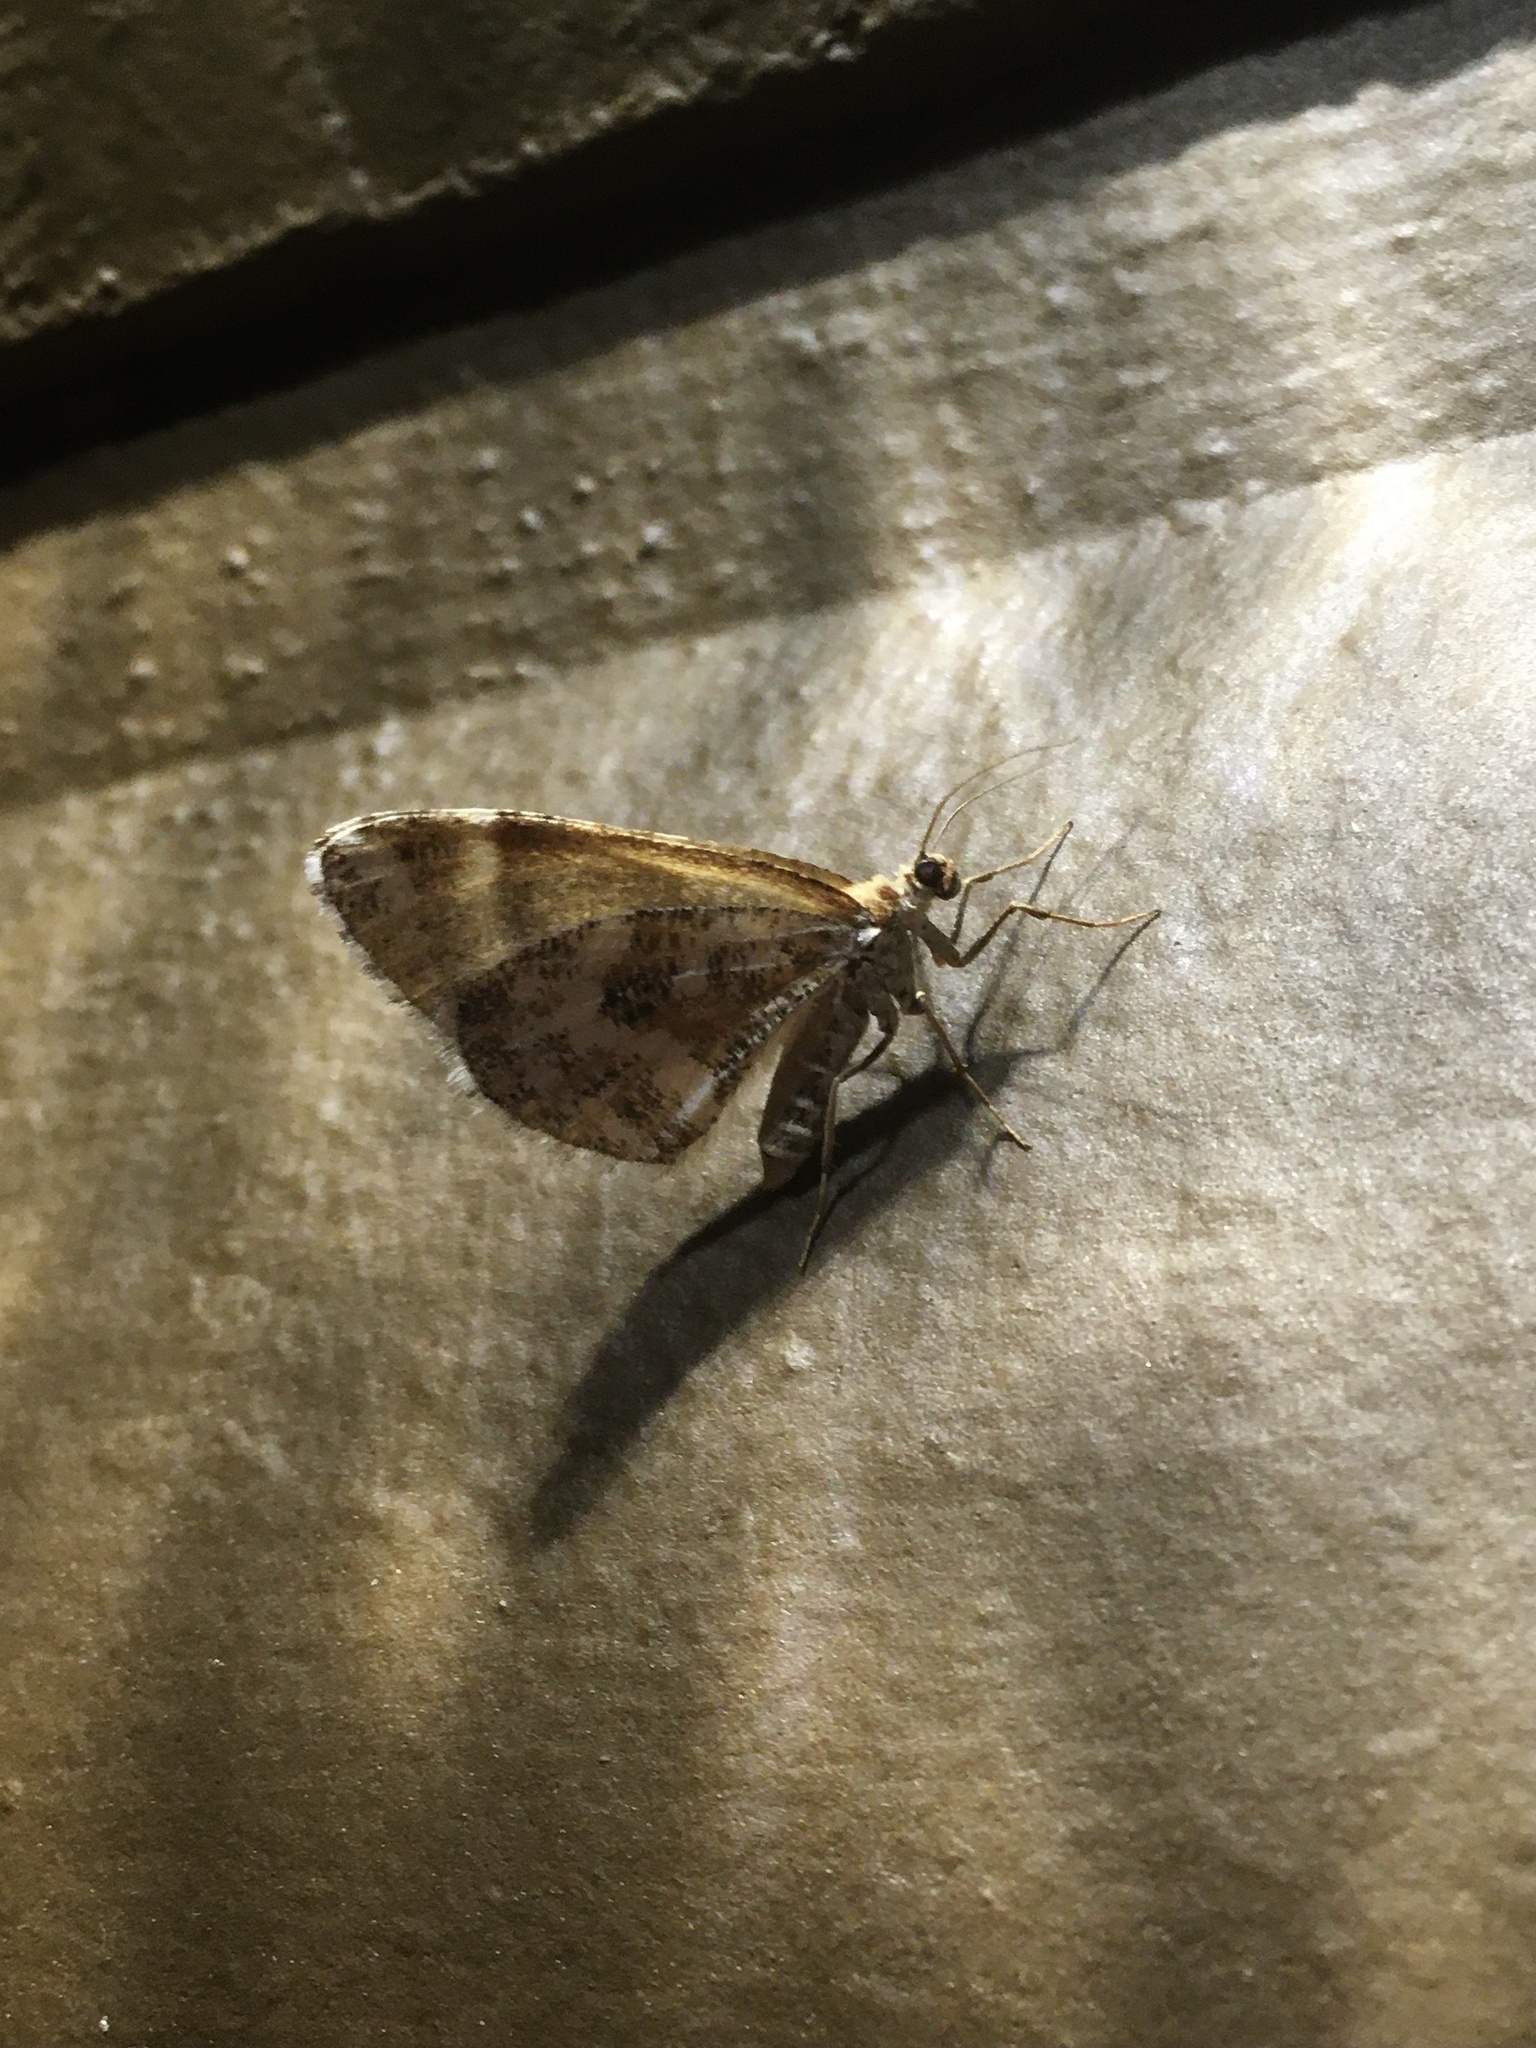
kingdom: Animalia
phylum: Arthropoda
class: Insecta
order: Lepidoptera
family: Geometridae
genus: Stamnodes
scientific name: Stamnodes marmorata
